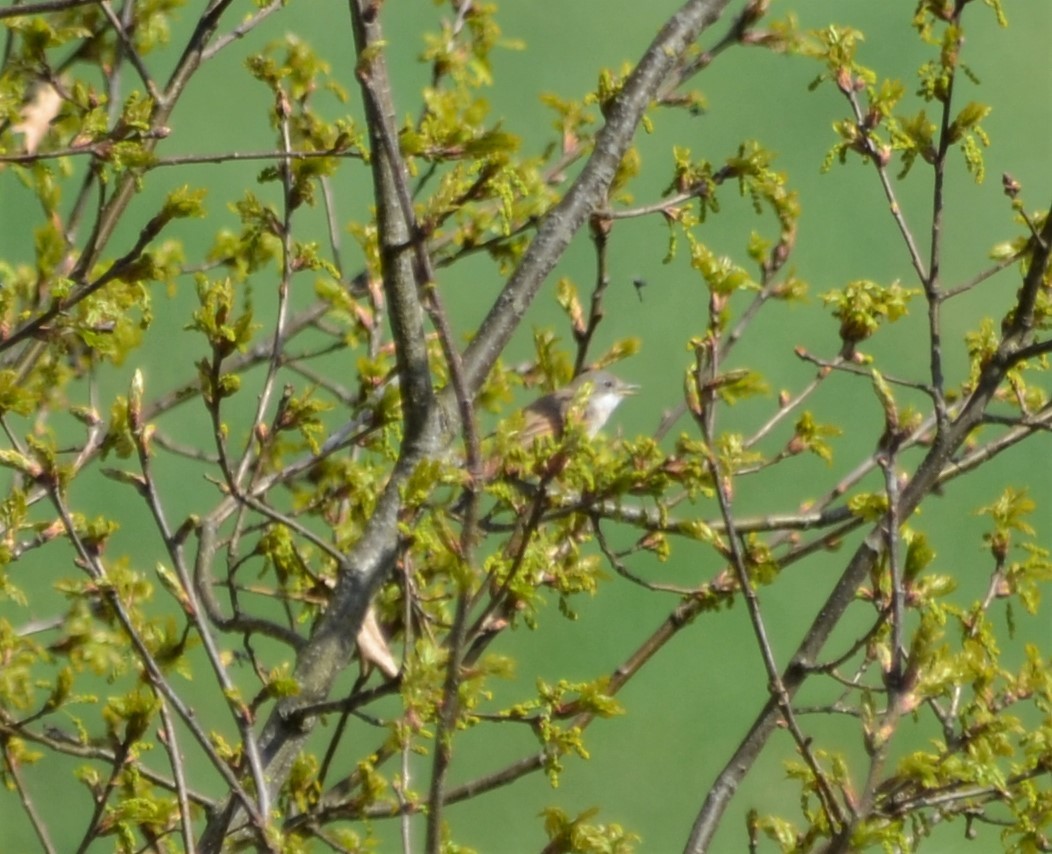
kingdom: Animalia
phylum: Chordata
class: Aves
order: Passeriformes
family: Sylviidae
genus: Sylvia
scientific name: Sylvia communis
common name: Common whitethroat
